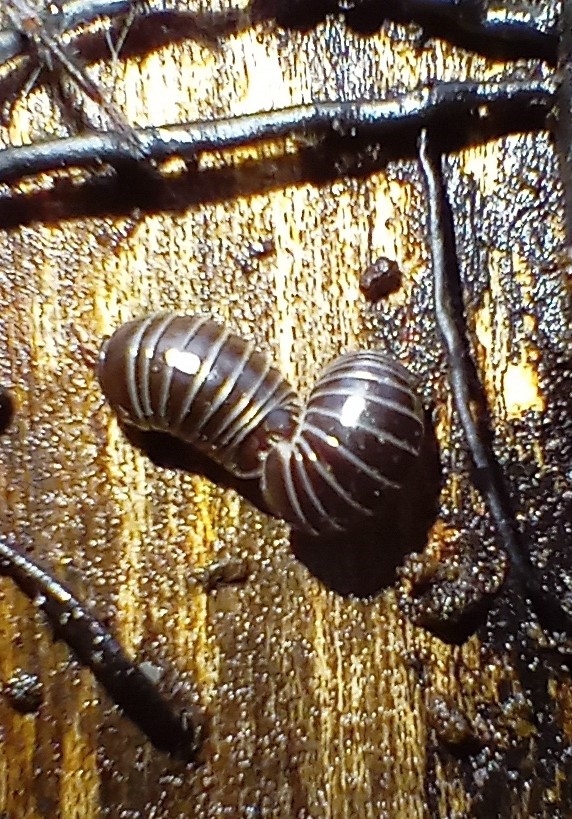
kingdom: Animalia
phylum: Arthropoda
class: Diplopoda
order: Glomerida
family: Glomeridae
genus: Glomeris
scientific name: Glomeris marginata
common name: Bordered pill millipede
